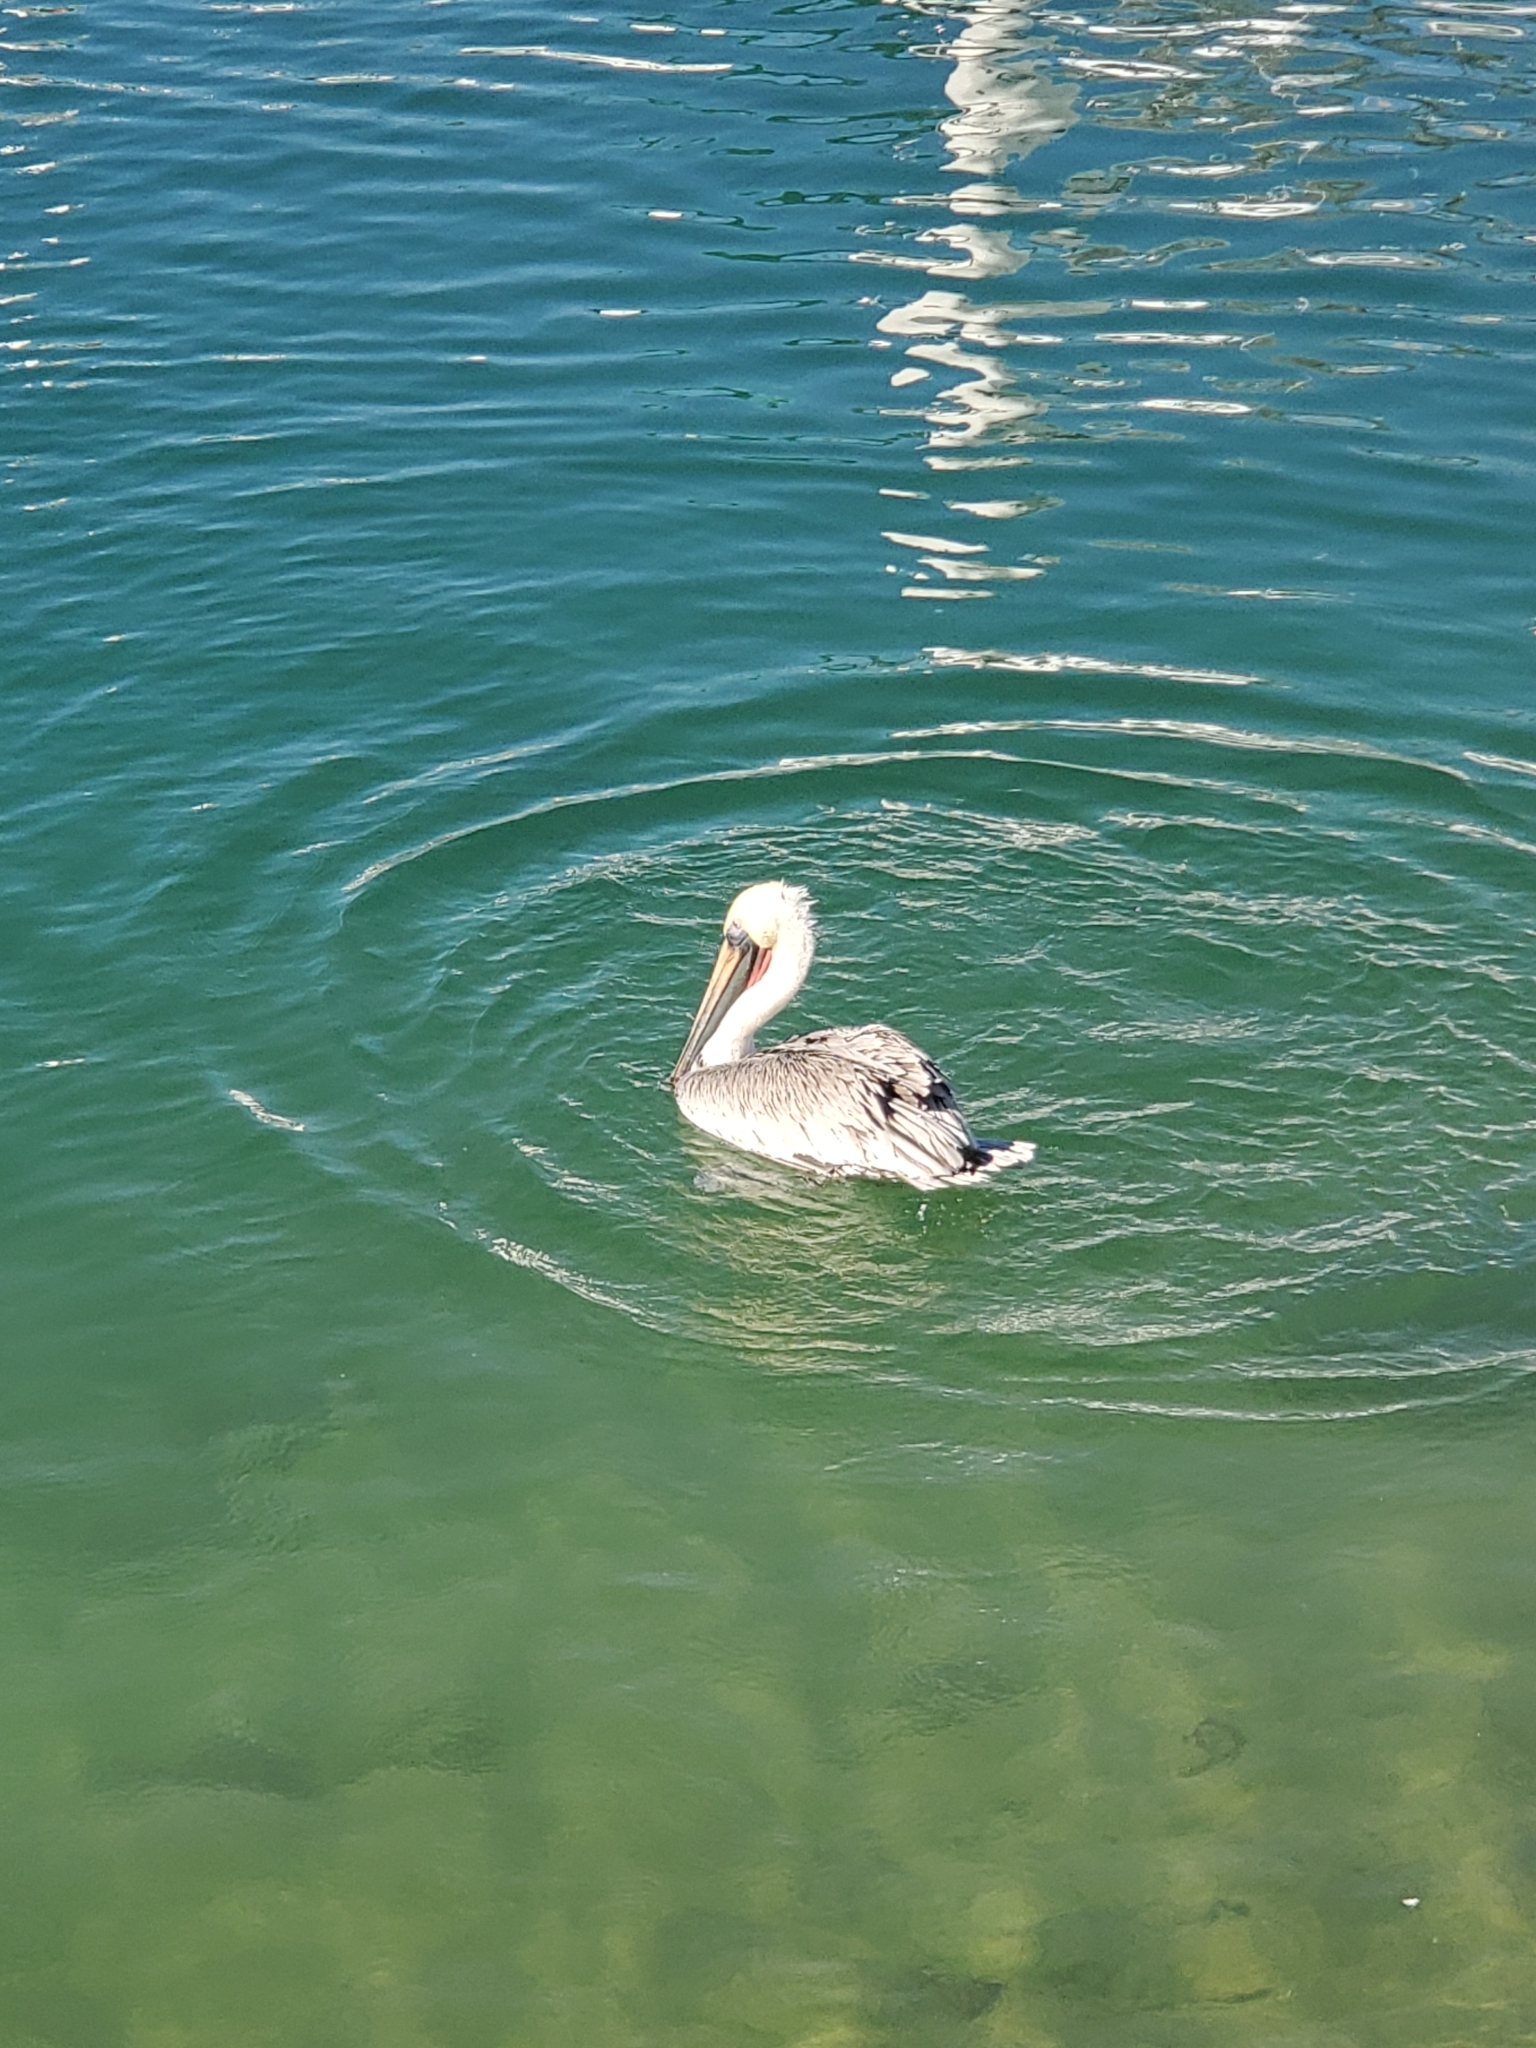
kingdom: Animalia
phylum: Chordata
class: Aves
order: Pelecaniformes
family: Pelecanidae
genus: Pelecanus
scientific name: Pelecanus occidentalis
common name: Brown pelican
